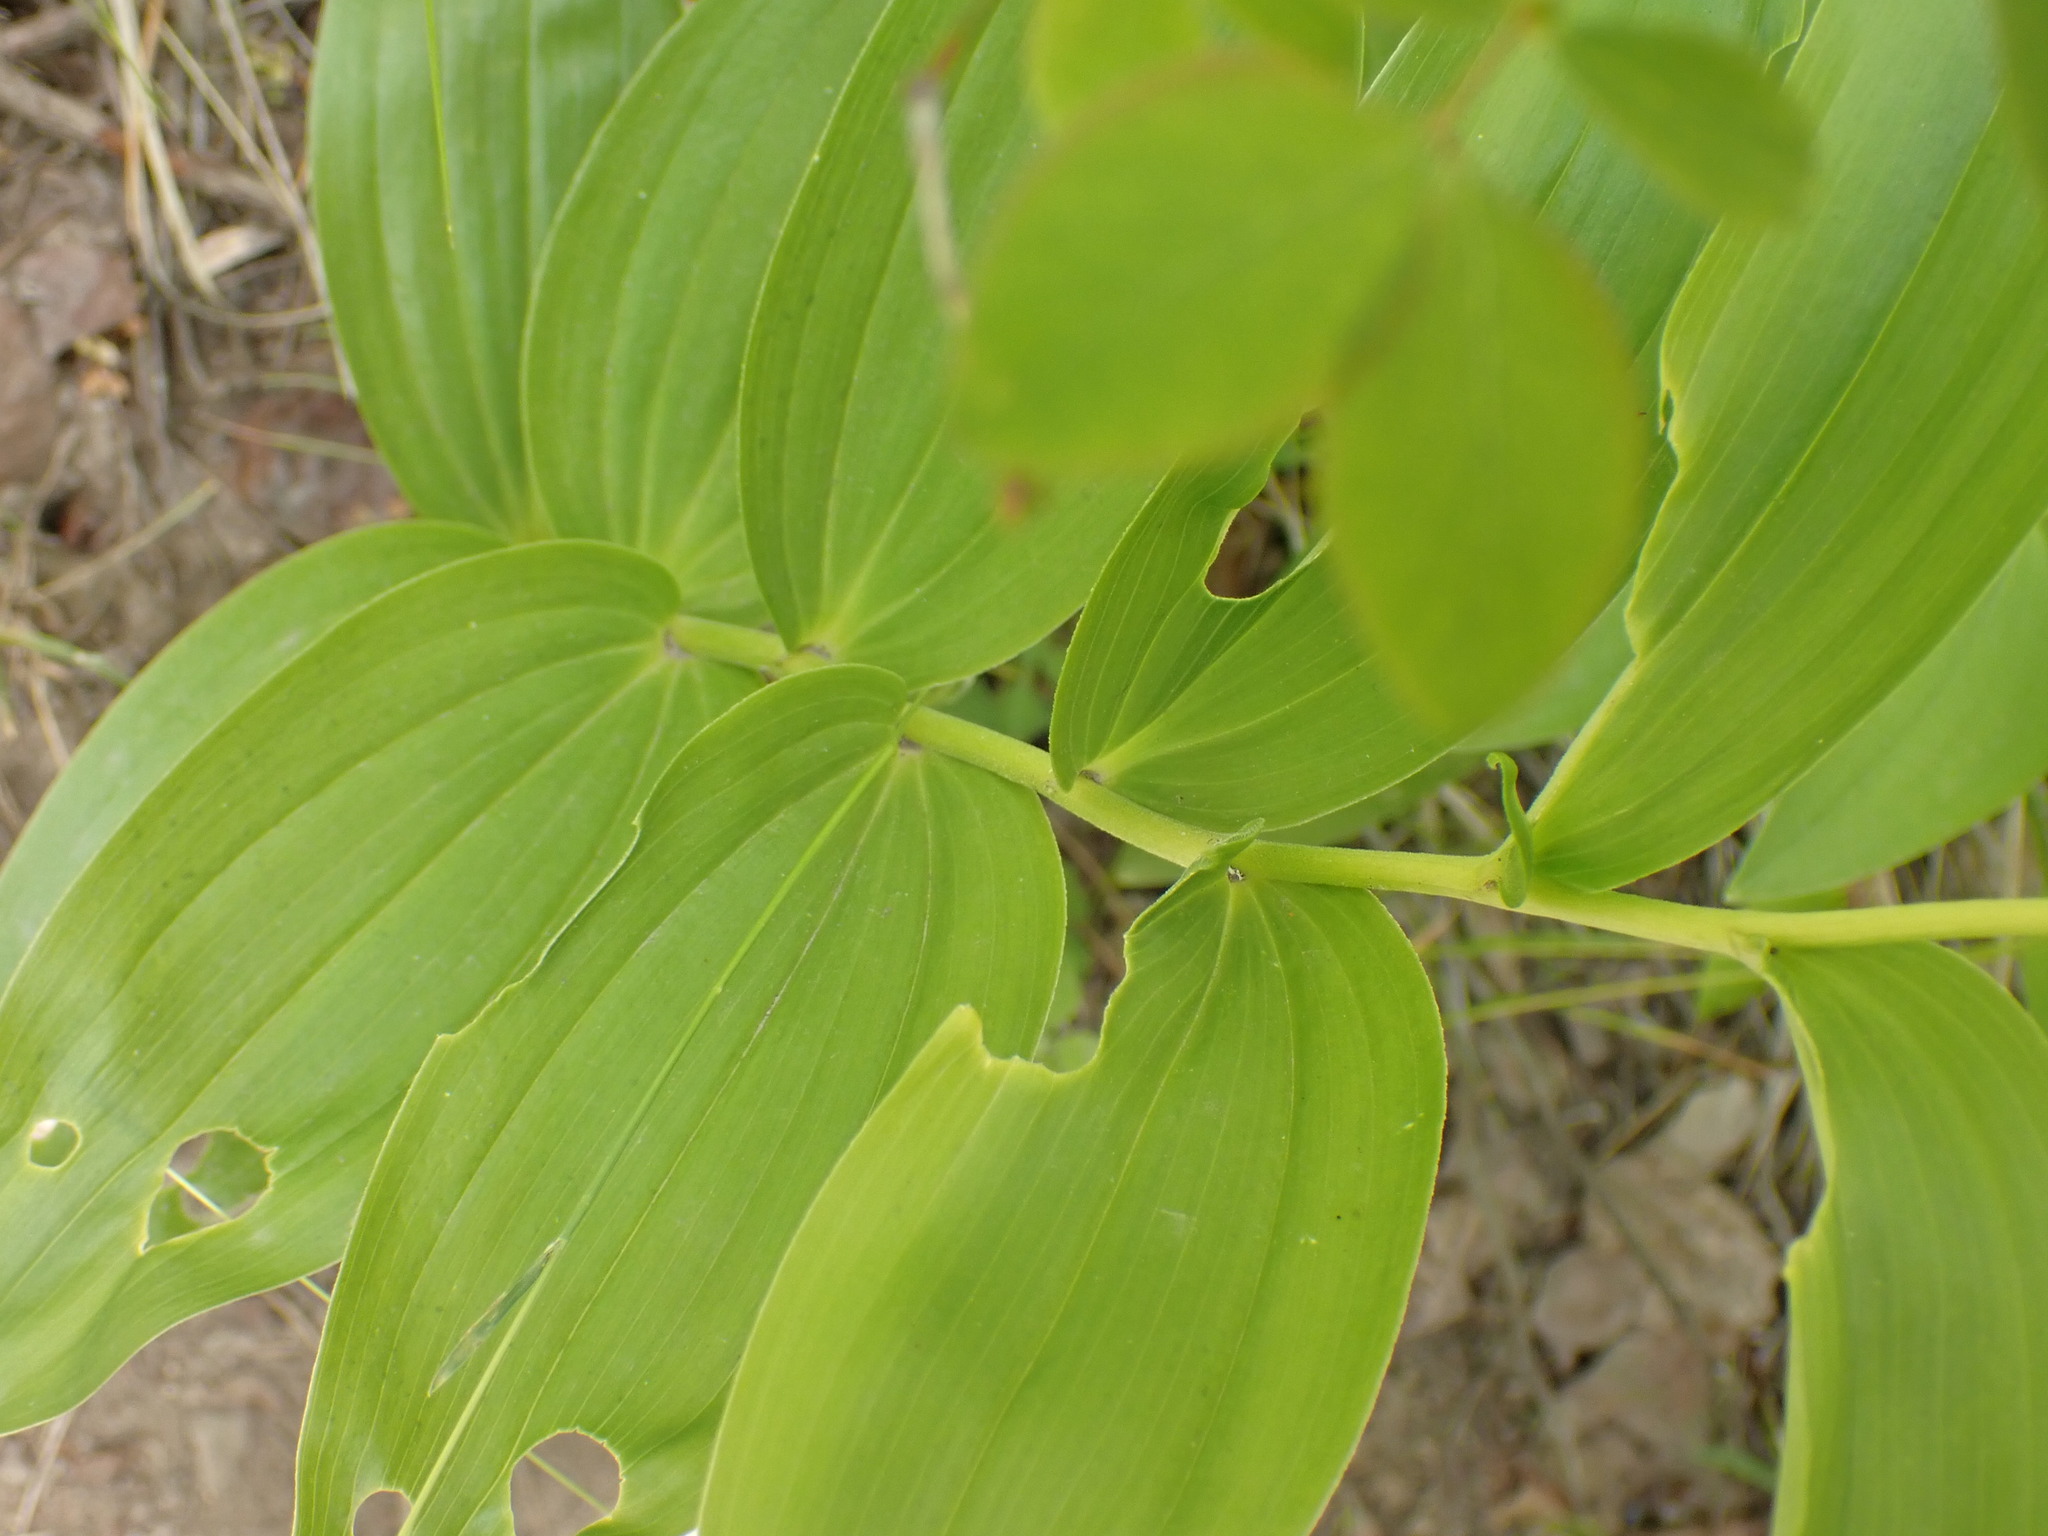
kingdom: Plantae
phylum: Tracheophyta
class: Liliopsida
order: Asparagales
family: Asparagaceae
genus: Maianthemum
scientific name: Maianthemum racemosum
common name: False spikenard
